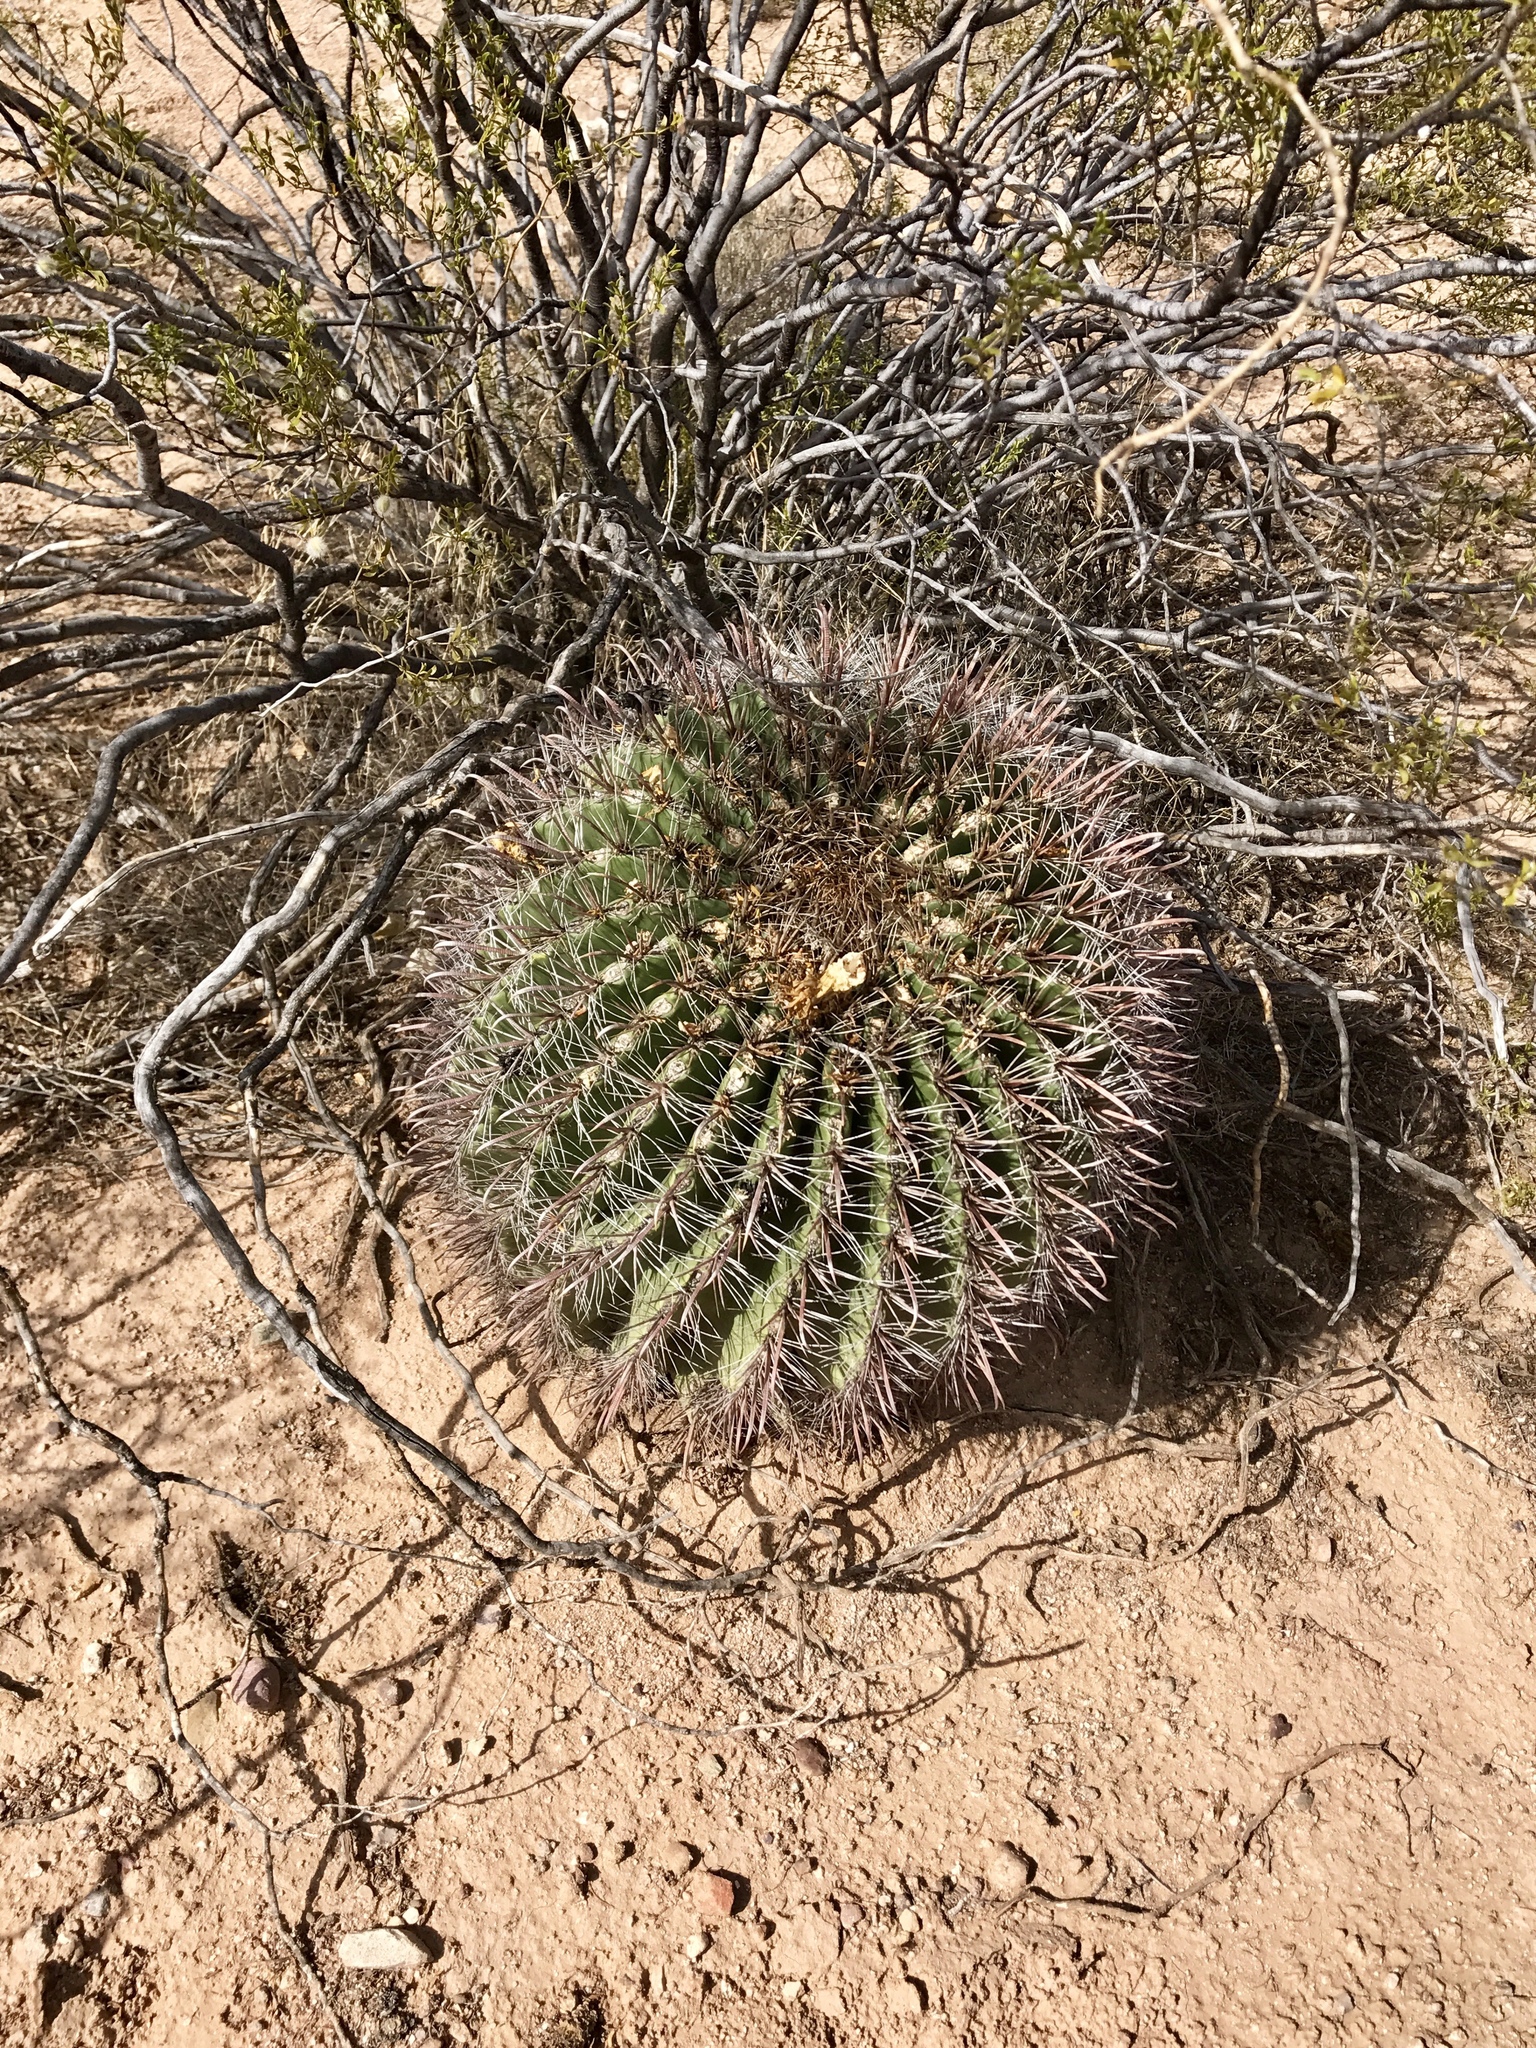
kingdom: Plantae
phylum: Tracheophyta
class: Magnoliopsida
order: Caryophyllales
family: Cactaceae
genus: Ferocactus
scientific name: Ferocactus wislizeni
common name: Candy barrel cactus
